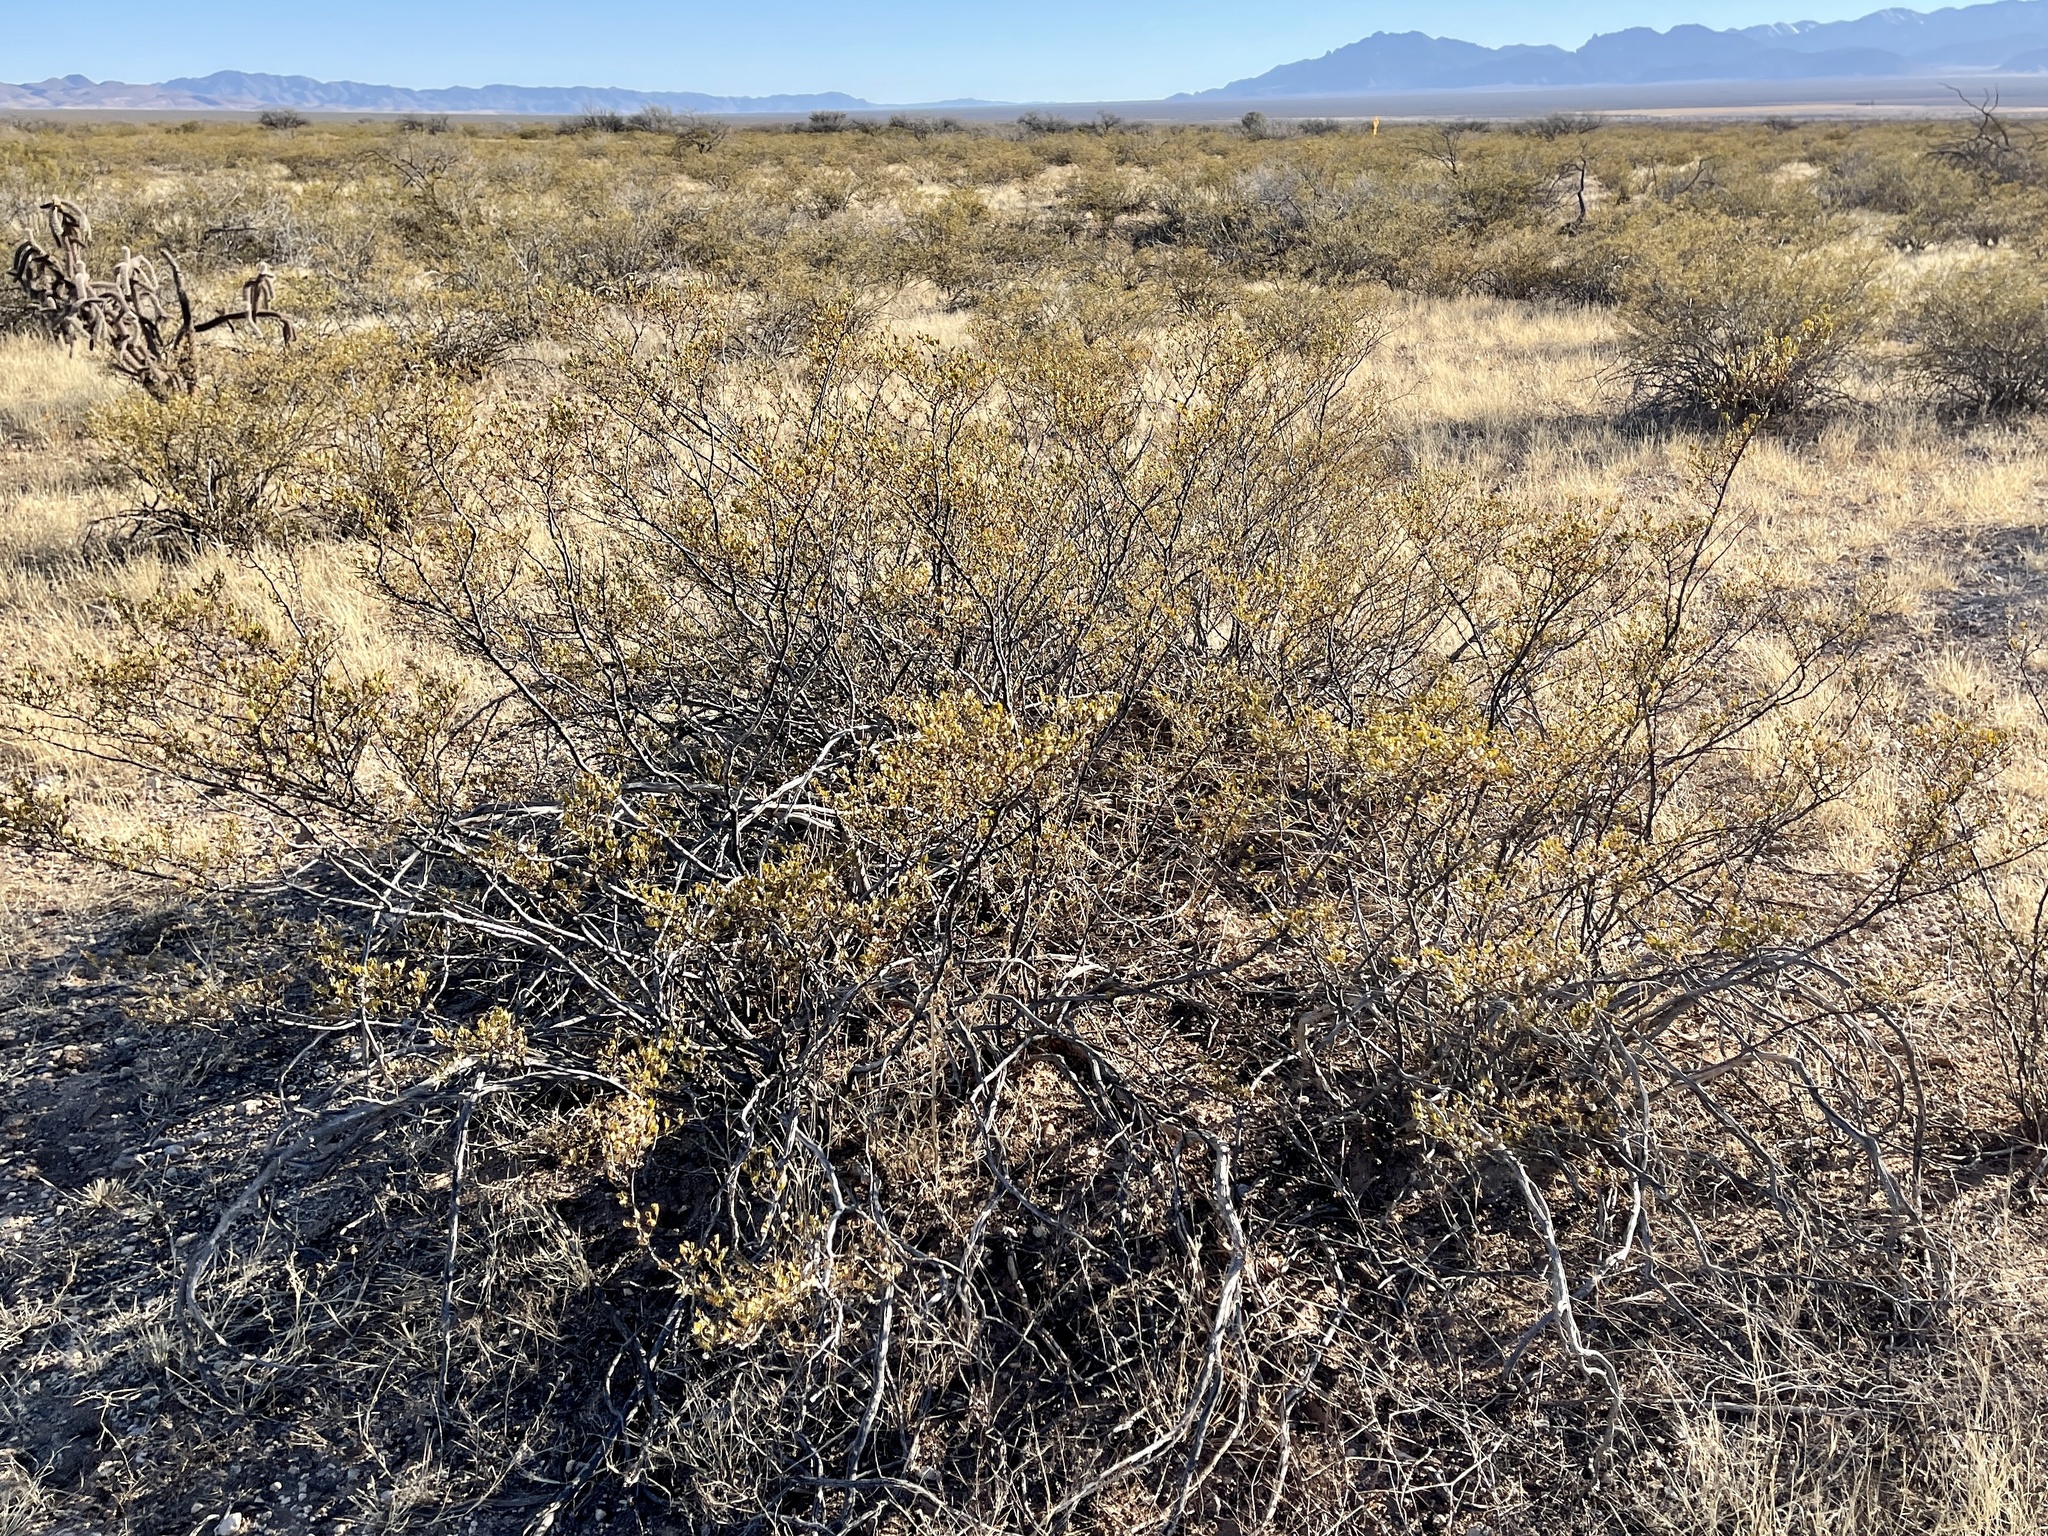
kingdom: Plantae
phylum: Tracheophyta
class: Magnoliopsida
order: Zygophyllales
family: Zygophyllaceae
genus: Larrea
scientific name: Larrea tridentata
